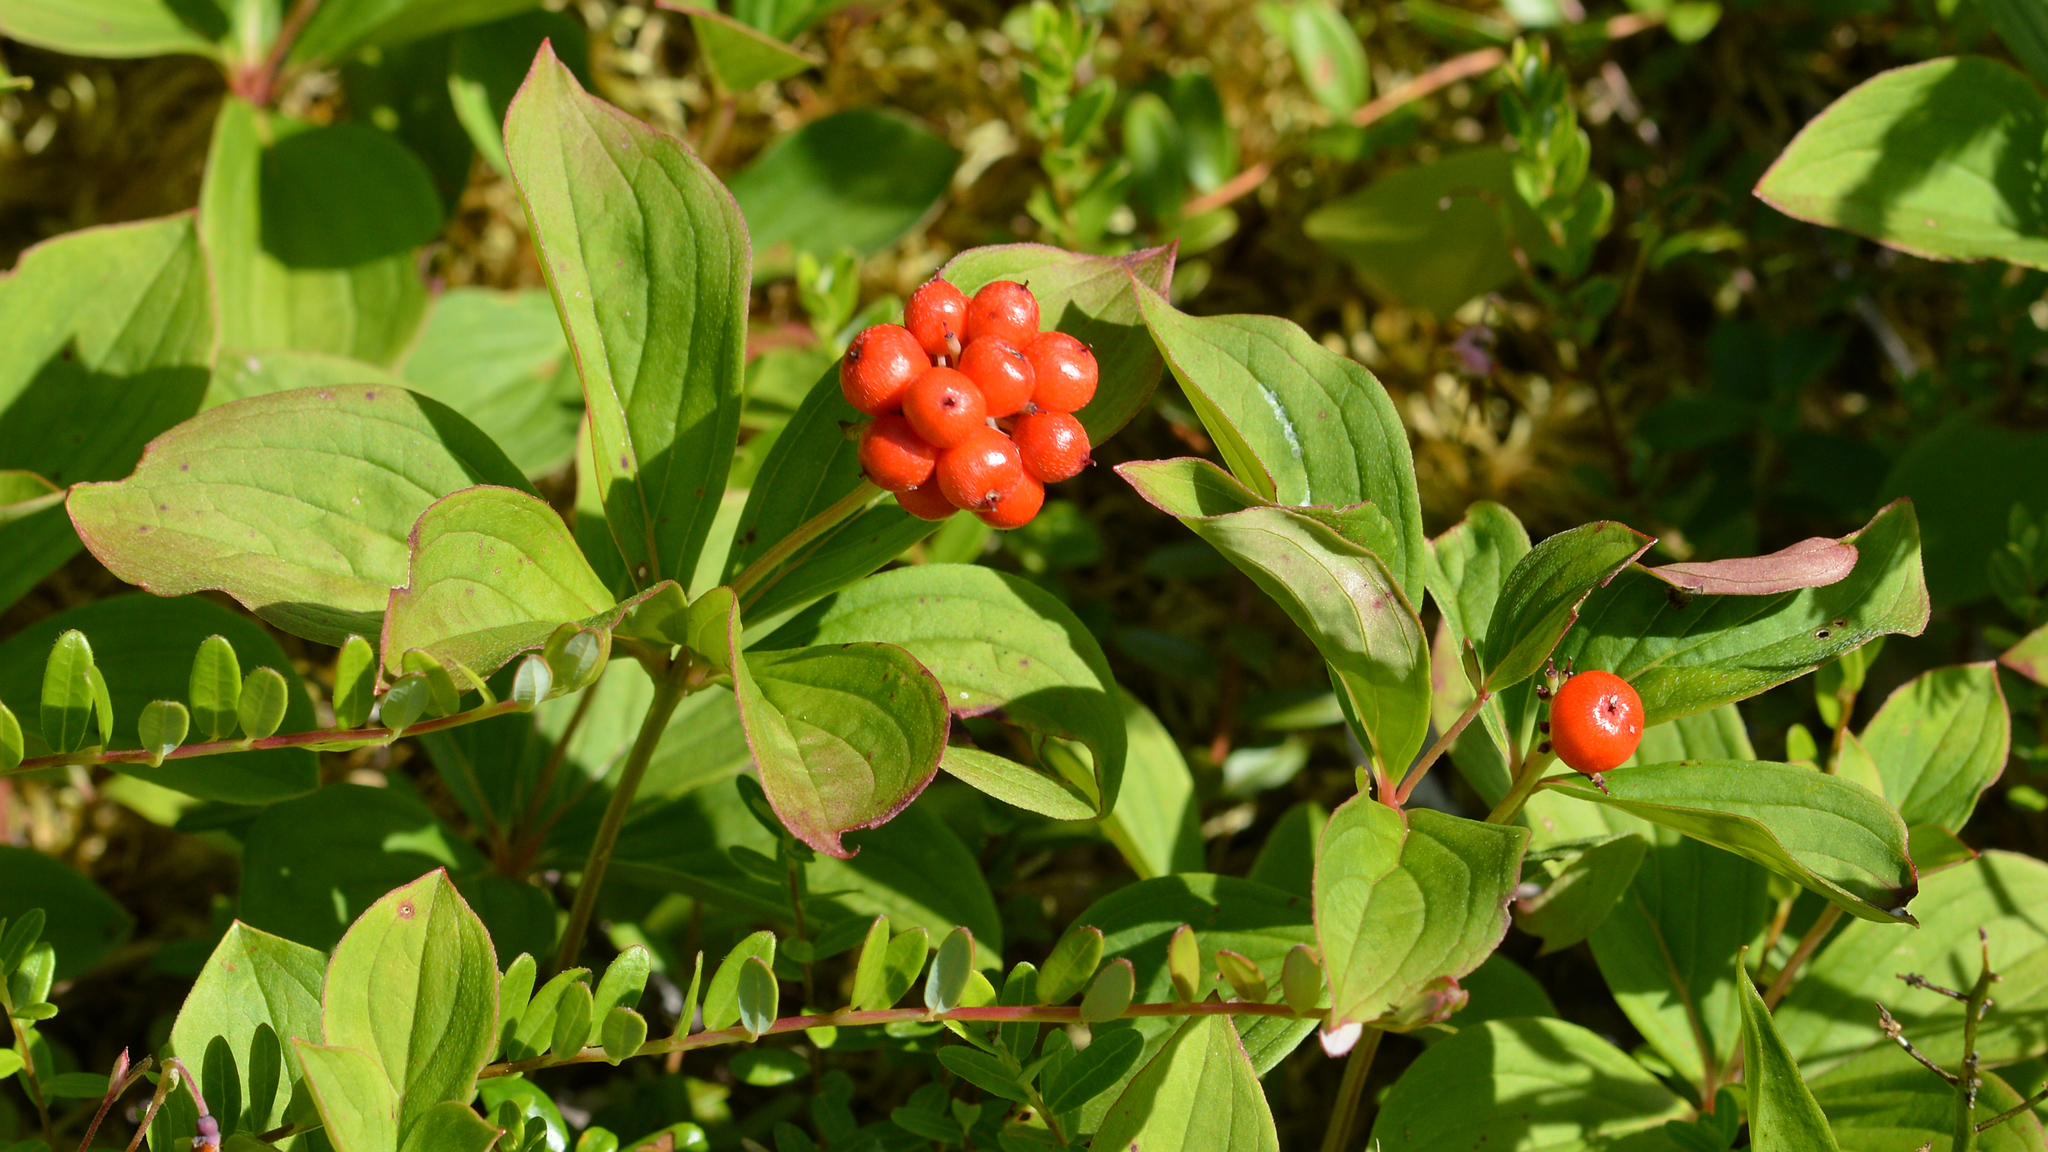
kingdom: Plantae
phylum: Tracheophyta
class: Magnoliopsida
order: Cornales
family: Cornaceae
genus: Cornus
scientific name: Cornus canadensis
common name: Creeping dogwood
